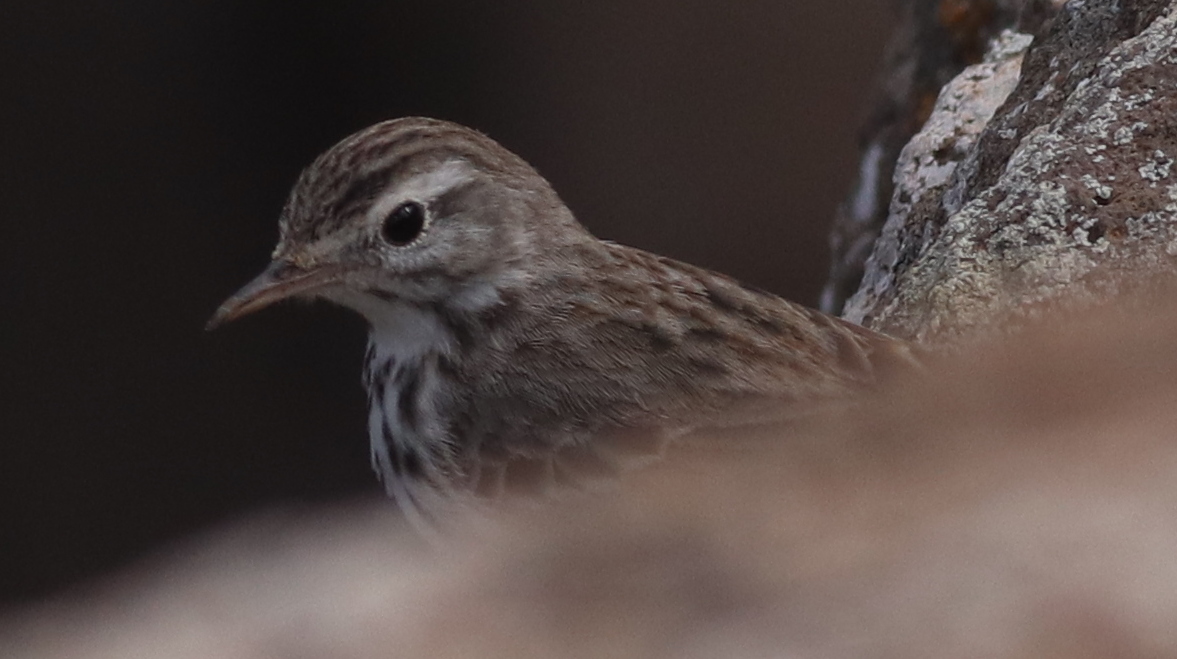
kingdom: Animalia
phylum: Chordata
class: Aves
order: Passeriformes
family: Motacillidae
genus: Anthus
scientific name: Anthus berthelotii
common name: Berthelot's pipit
